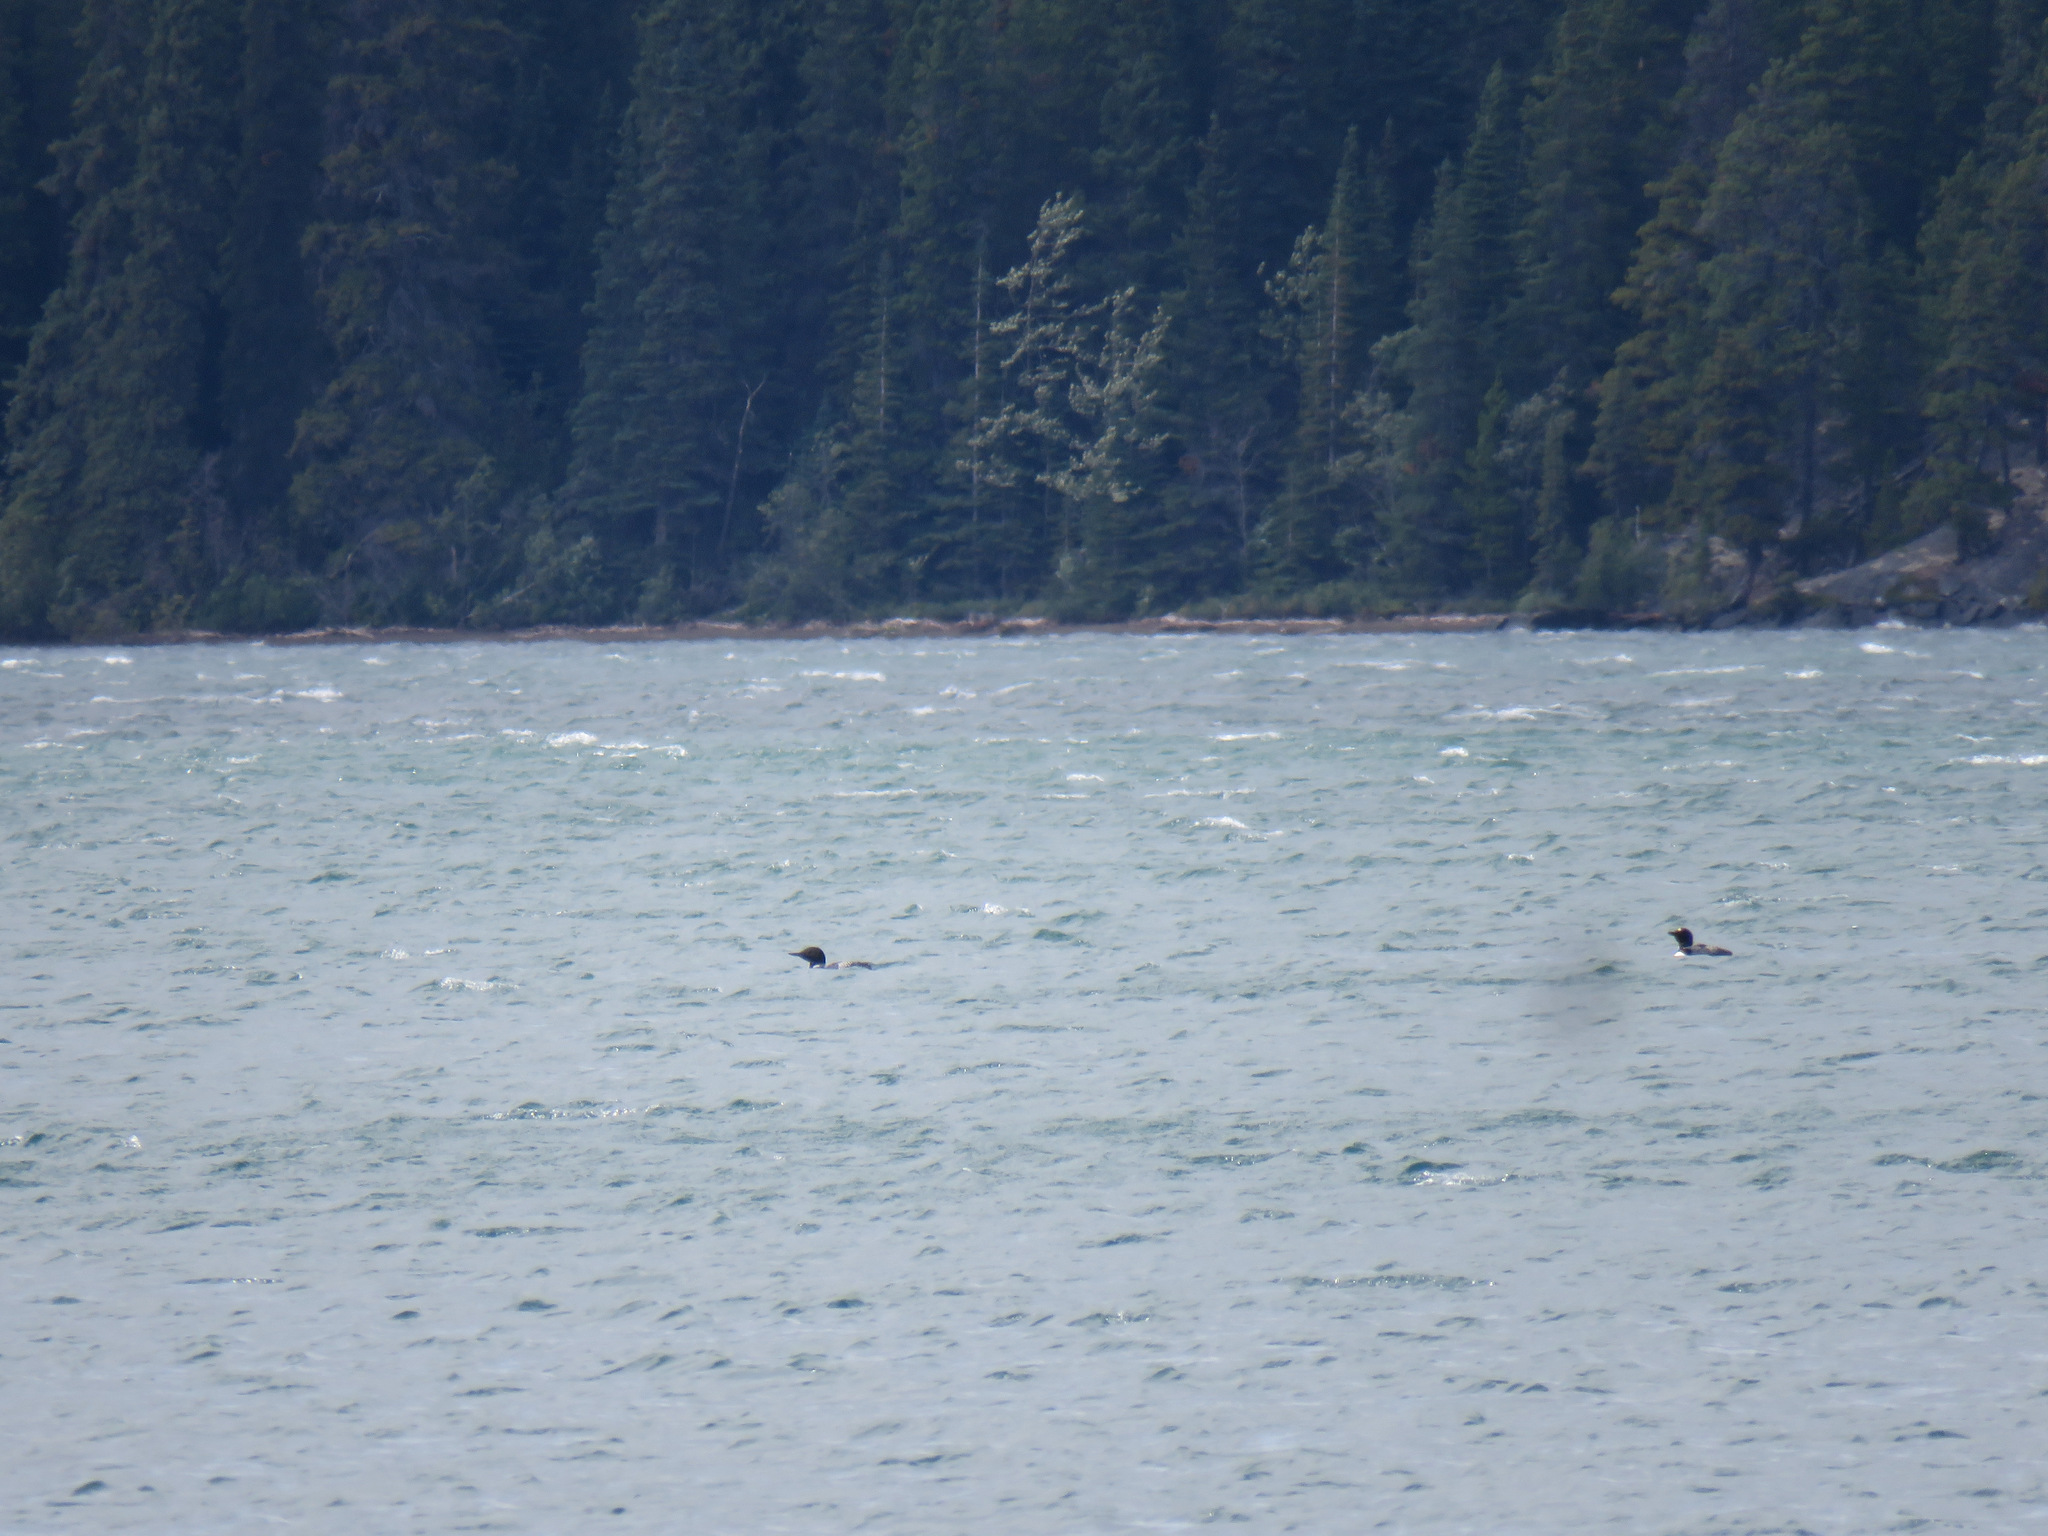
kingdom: Animalia
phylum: Chordata
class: Aves
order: Gaviiformes
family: Gaviidae
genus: Gavia
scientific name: Gavia immer
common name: Common loon
